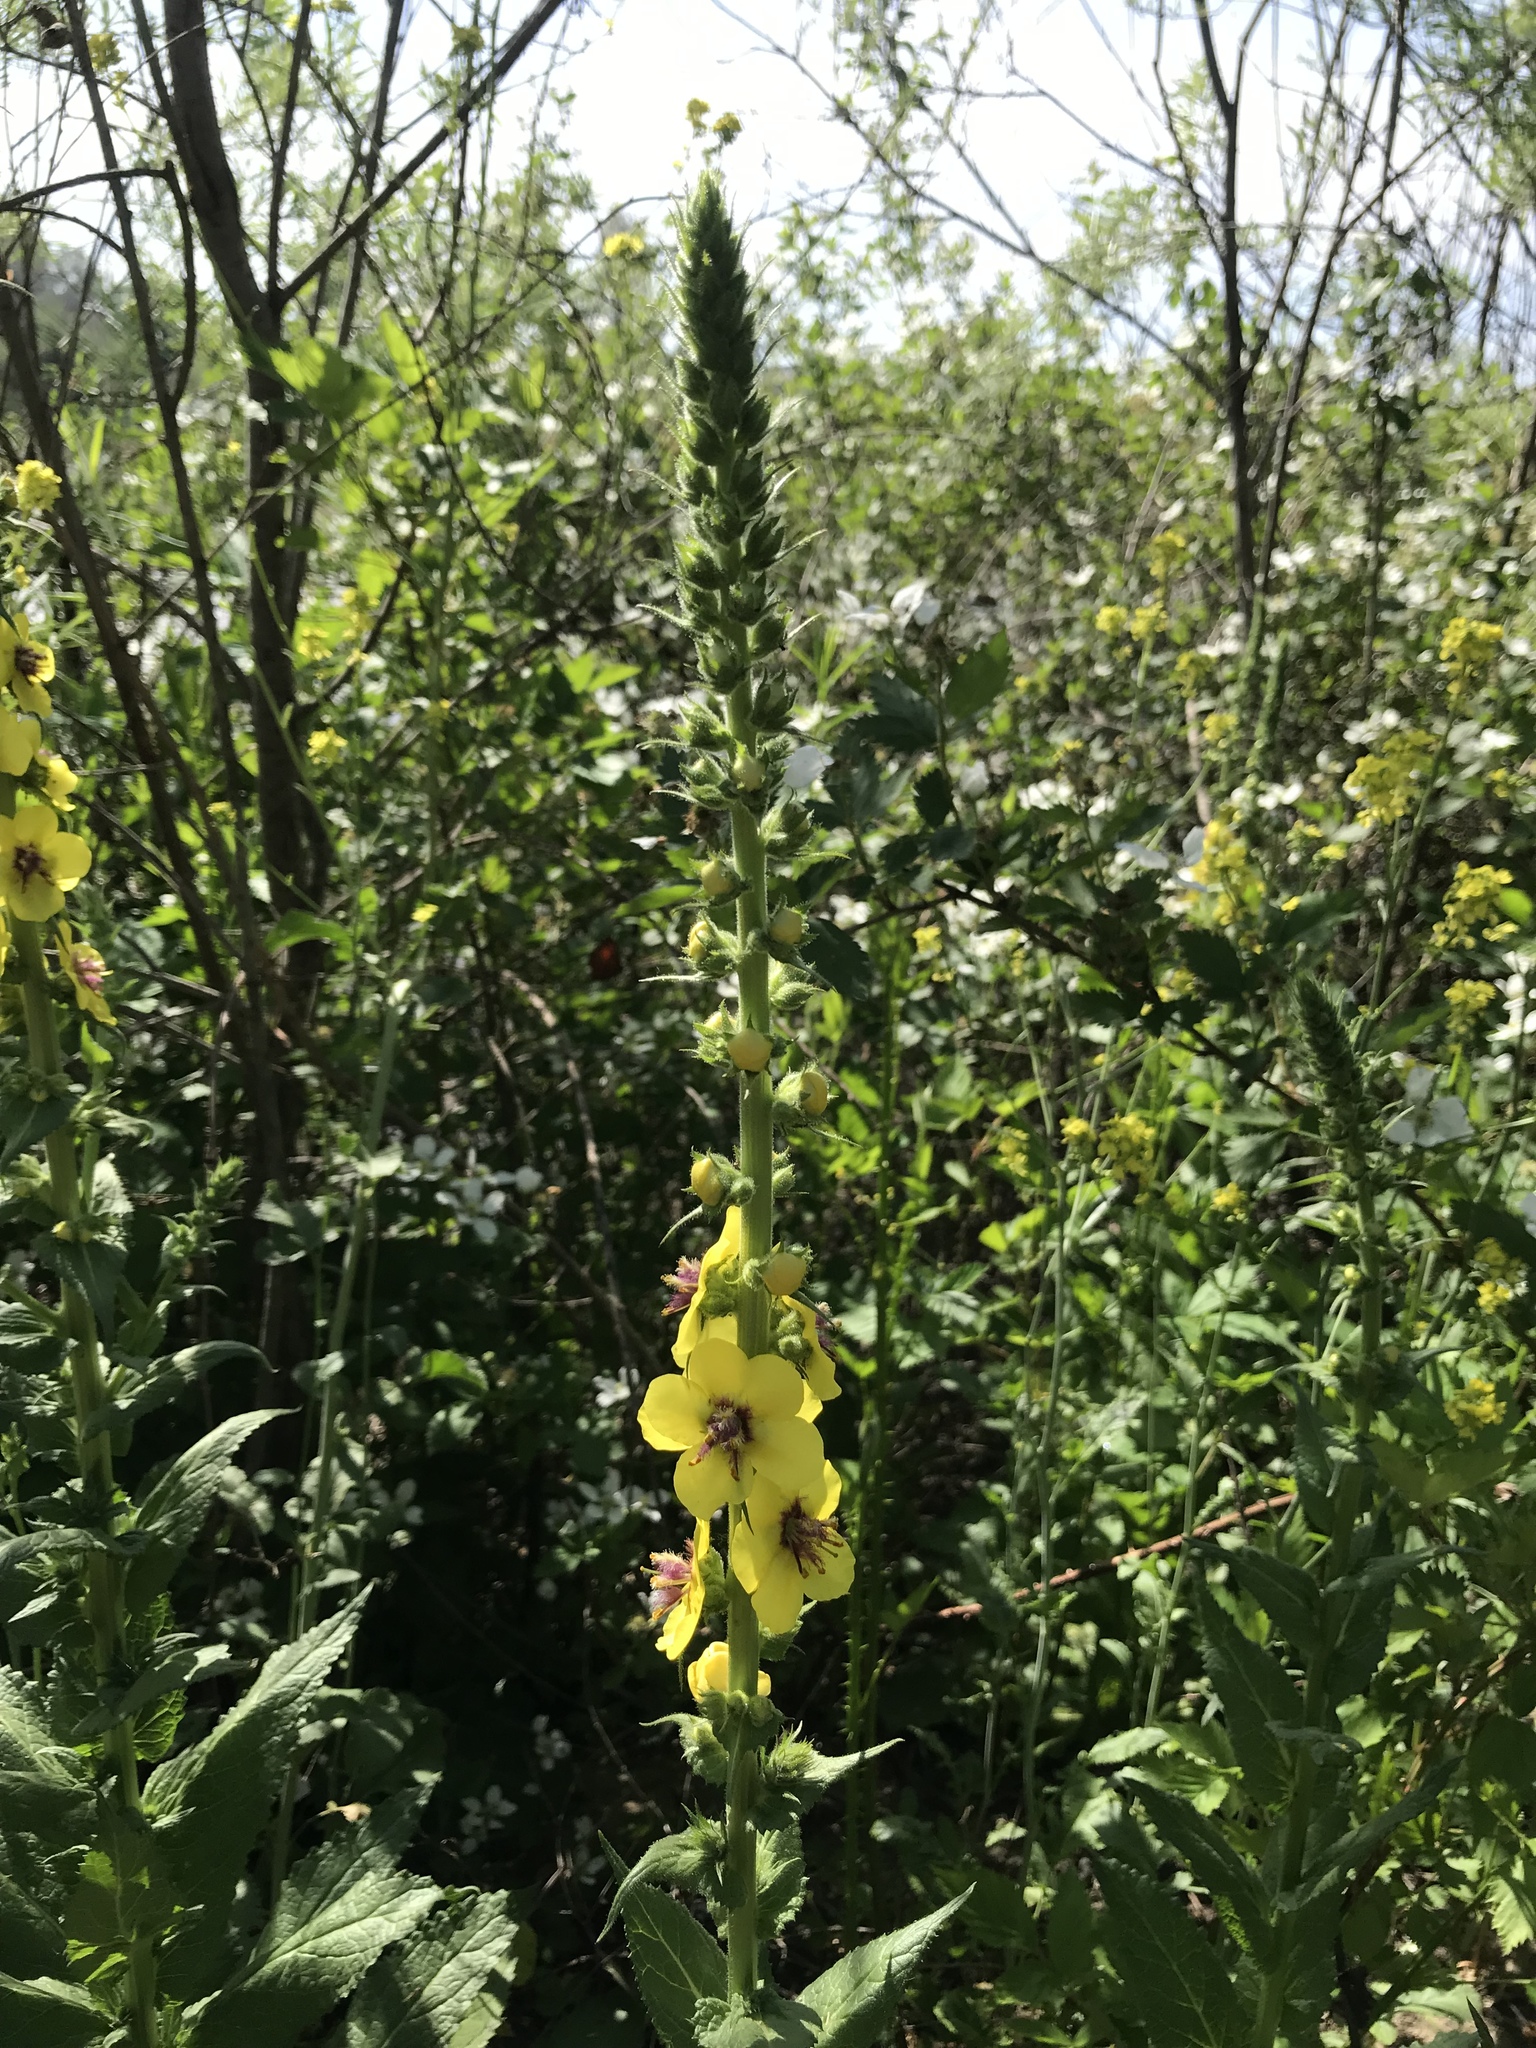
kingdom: Plantae
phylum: Tracheophyta
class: Magnoliopsida
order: Lamiales
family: Scrophulariaceae
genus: Verbascum
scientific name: Verbascum virgatum
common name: Twiggy mullein
